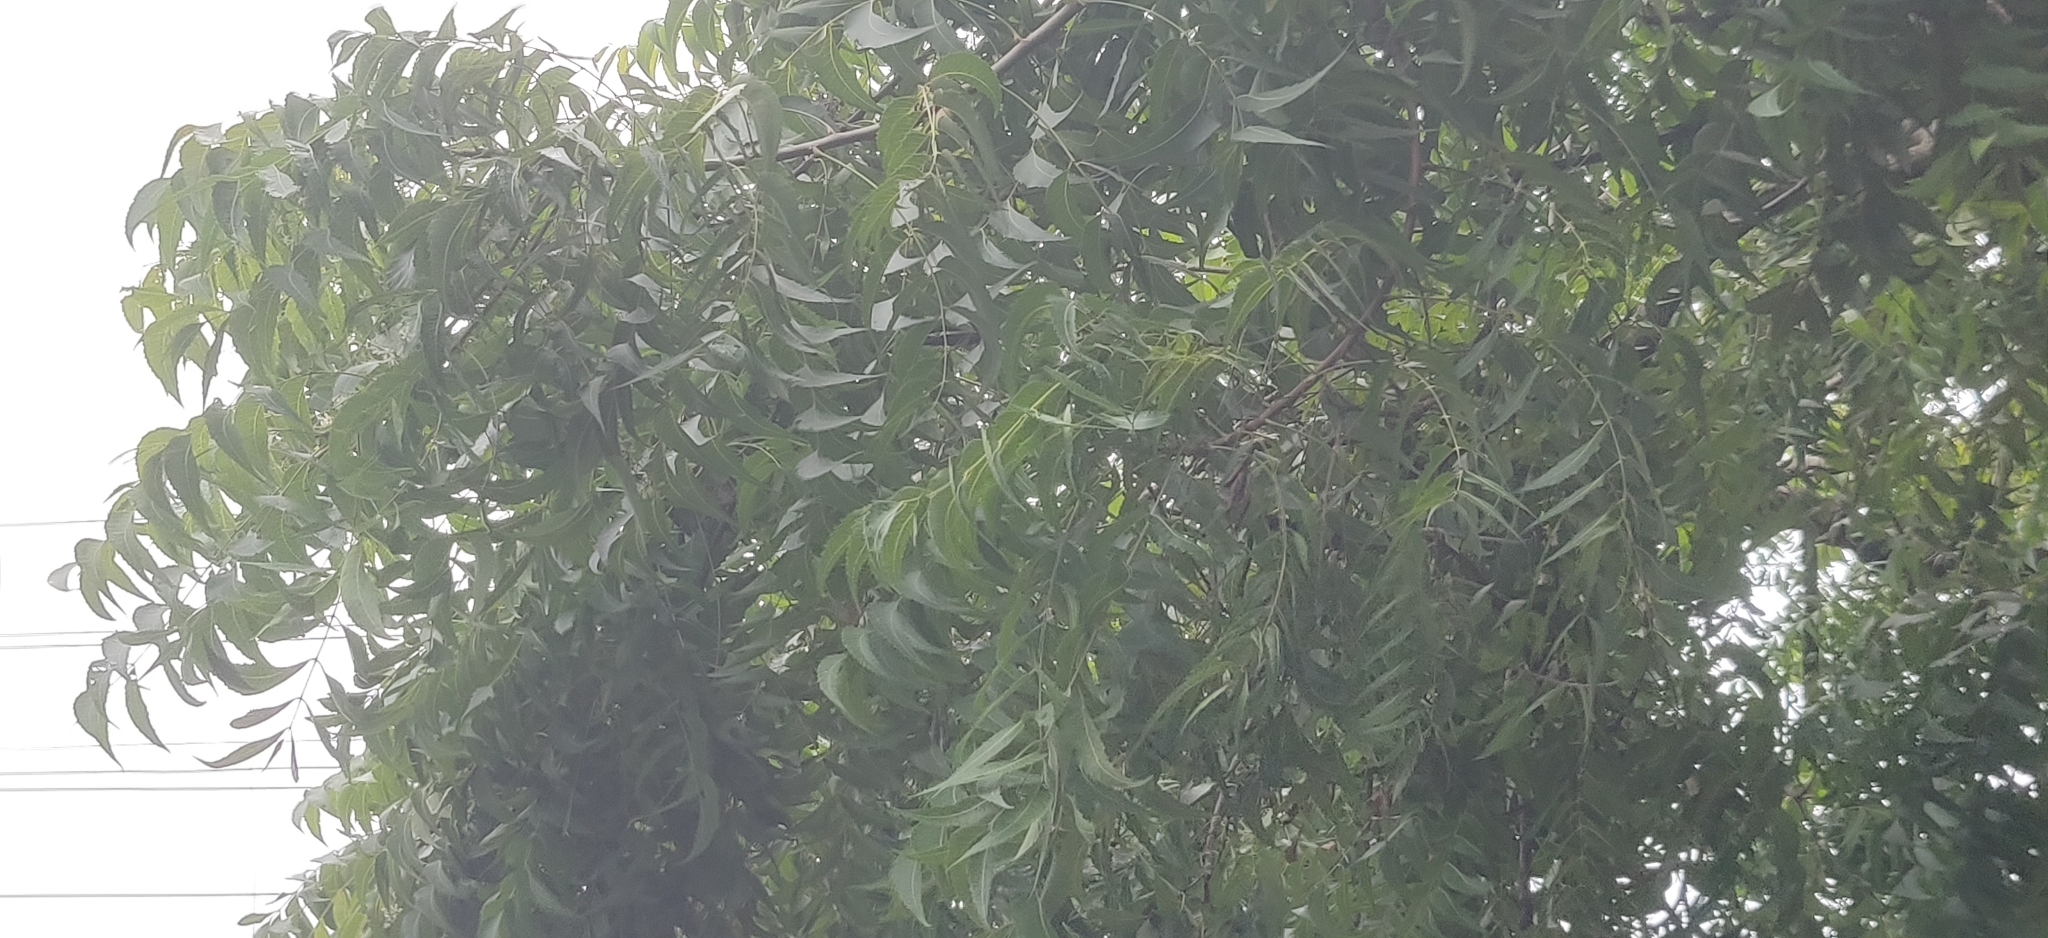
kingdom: Plantae
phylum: Tracheophyta
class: Magnoliopsida
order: Sapindales
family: Meliaceae
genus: Azadirachta
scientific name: Azadirachta indica
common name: Neem
